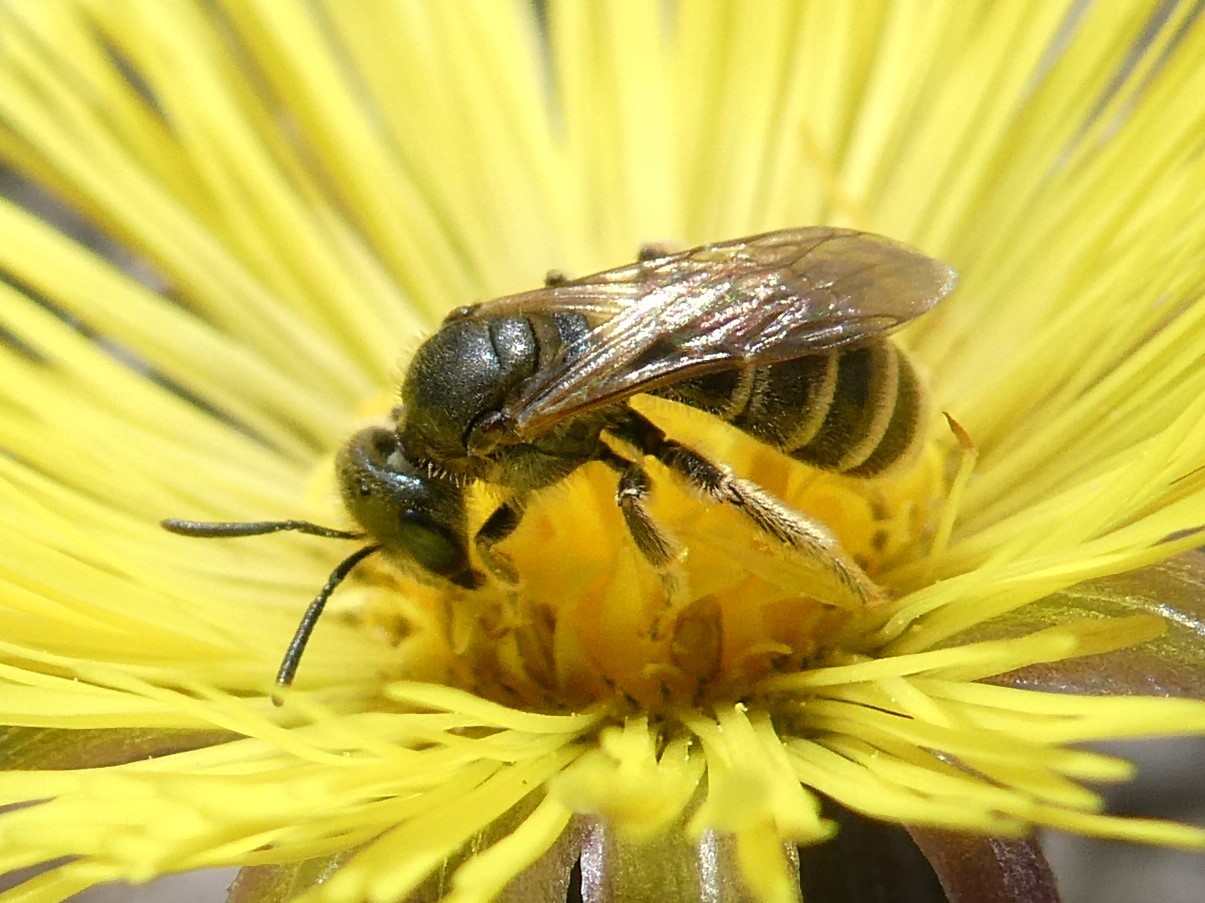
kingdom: Animalia
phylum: Arthropoda
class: Insecta
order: Hymenoptera
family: Halictidae
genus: Halictus
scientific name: Halictus confusus
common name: Southern bronze furrow bee
